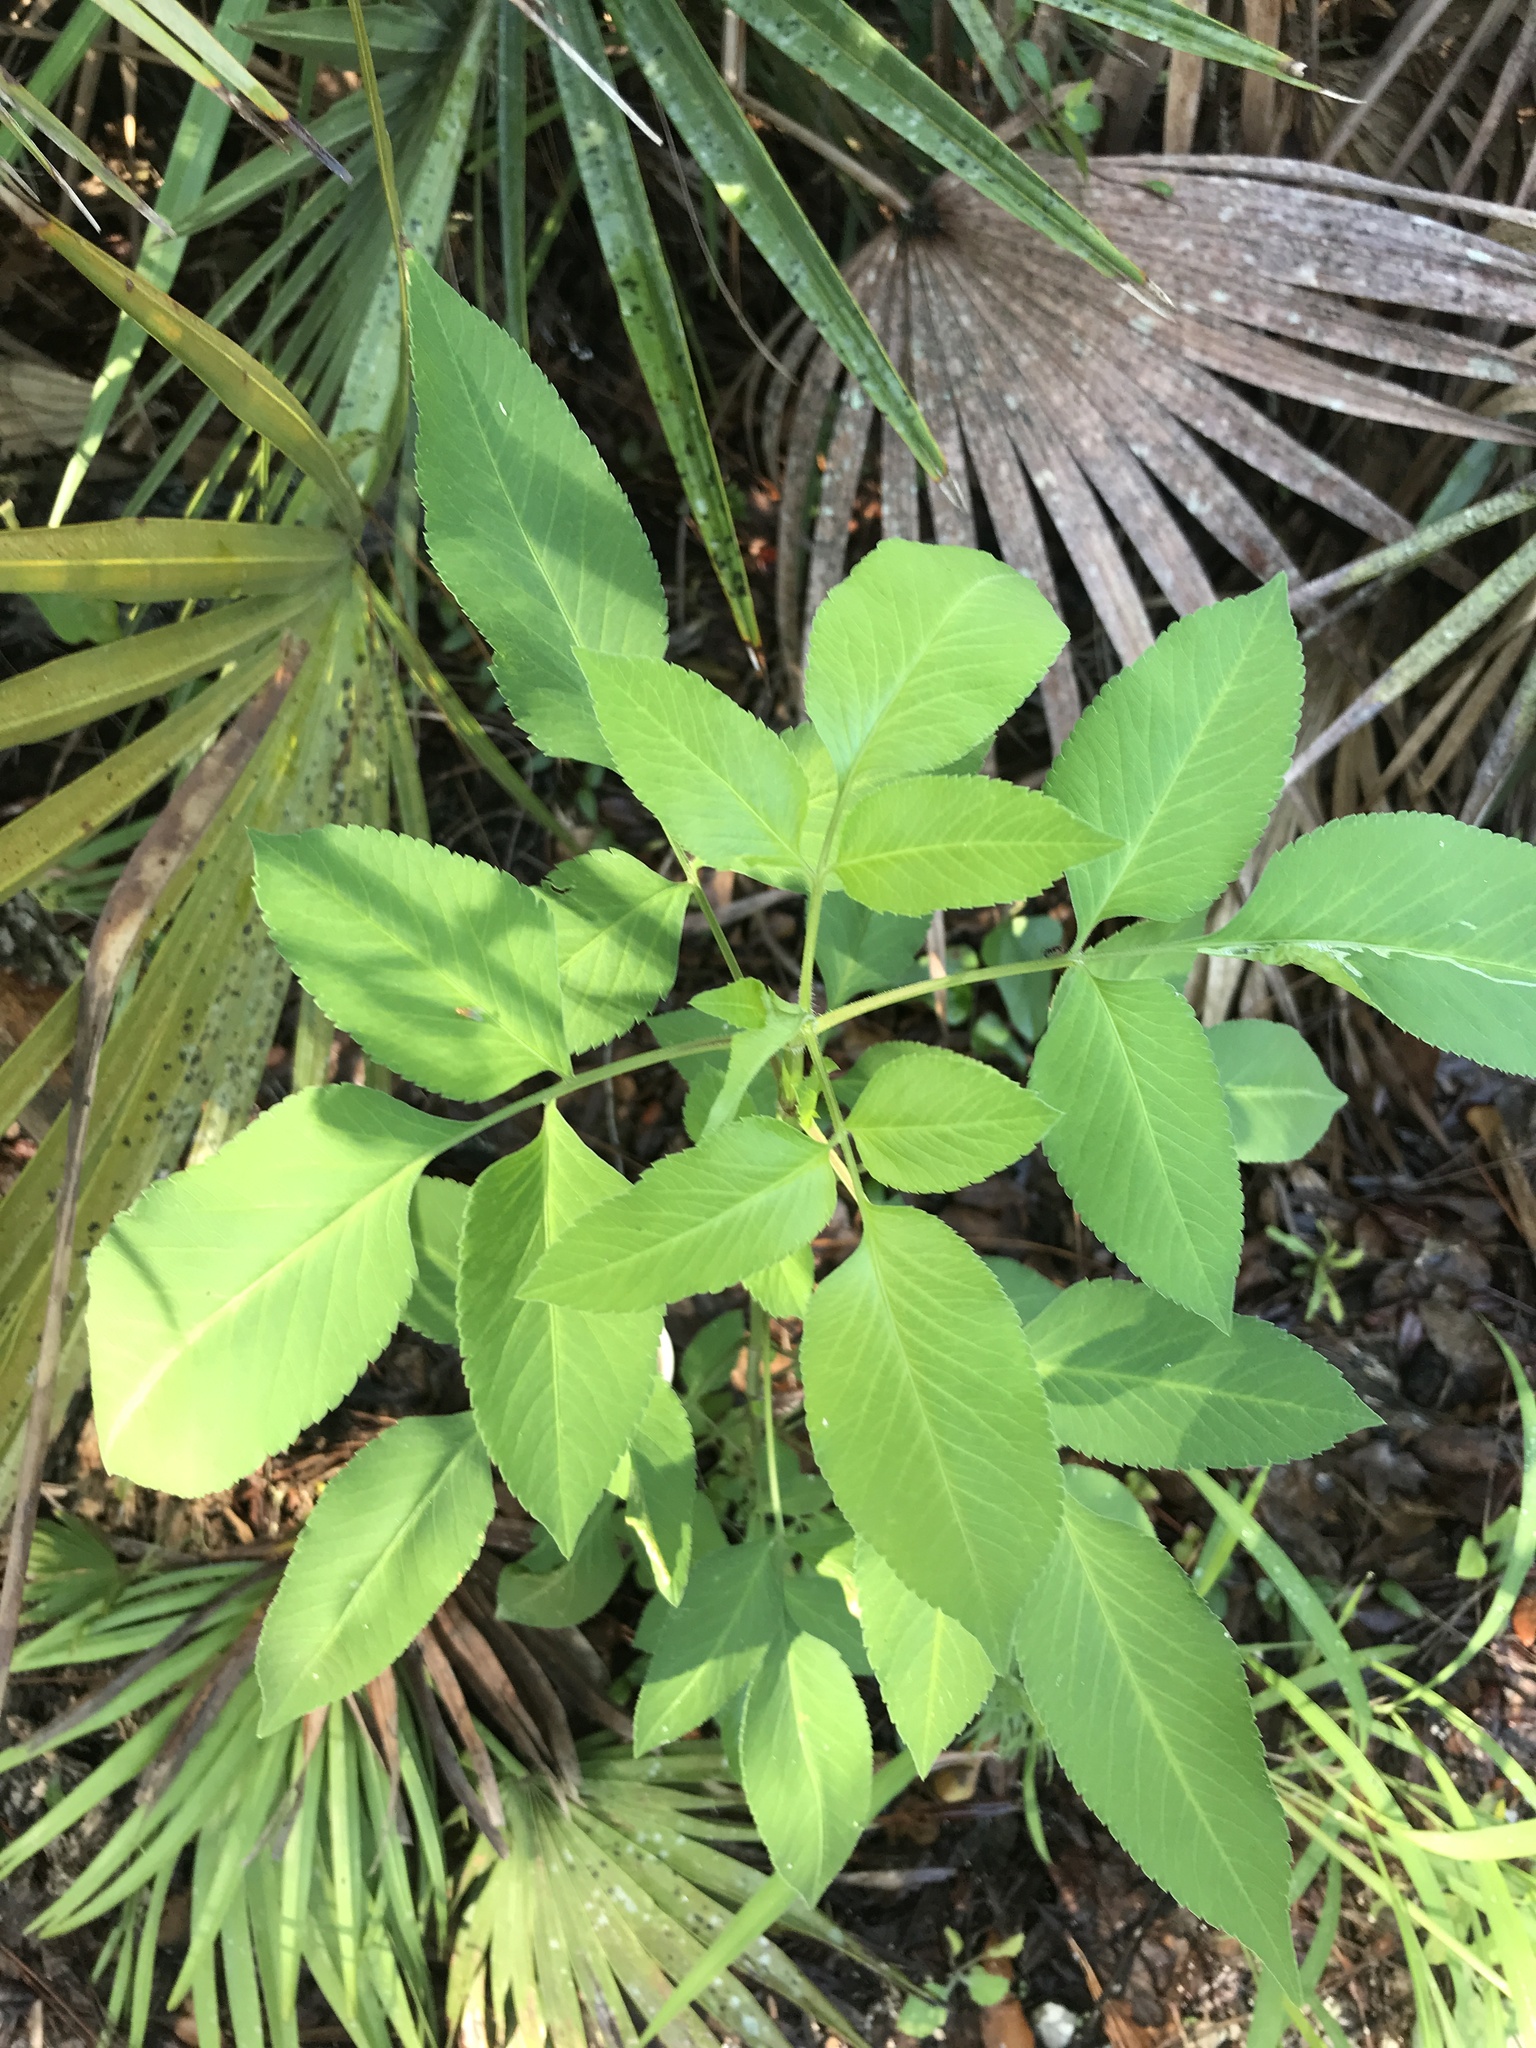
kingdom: Plantae
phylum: Tracheophyta
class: Magnoliopsida
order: Asterales
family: Asteraceae
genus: Bidens
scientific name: Bidens alba
